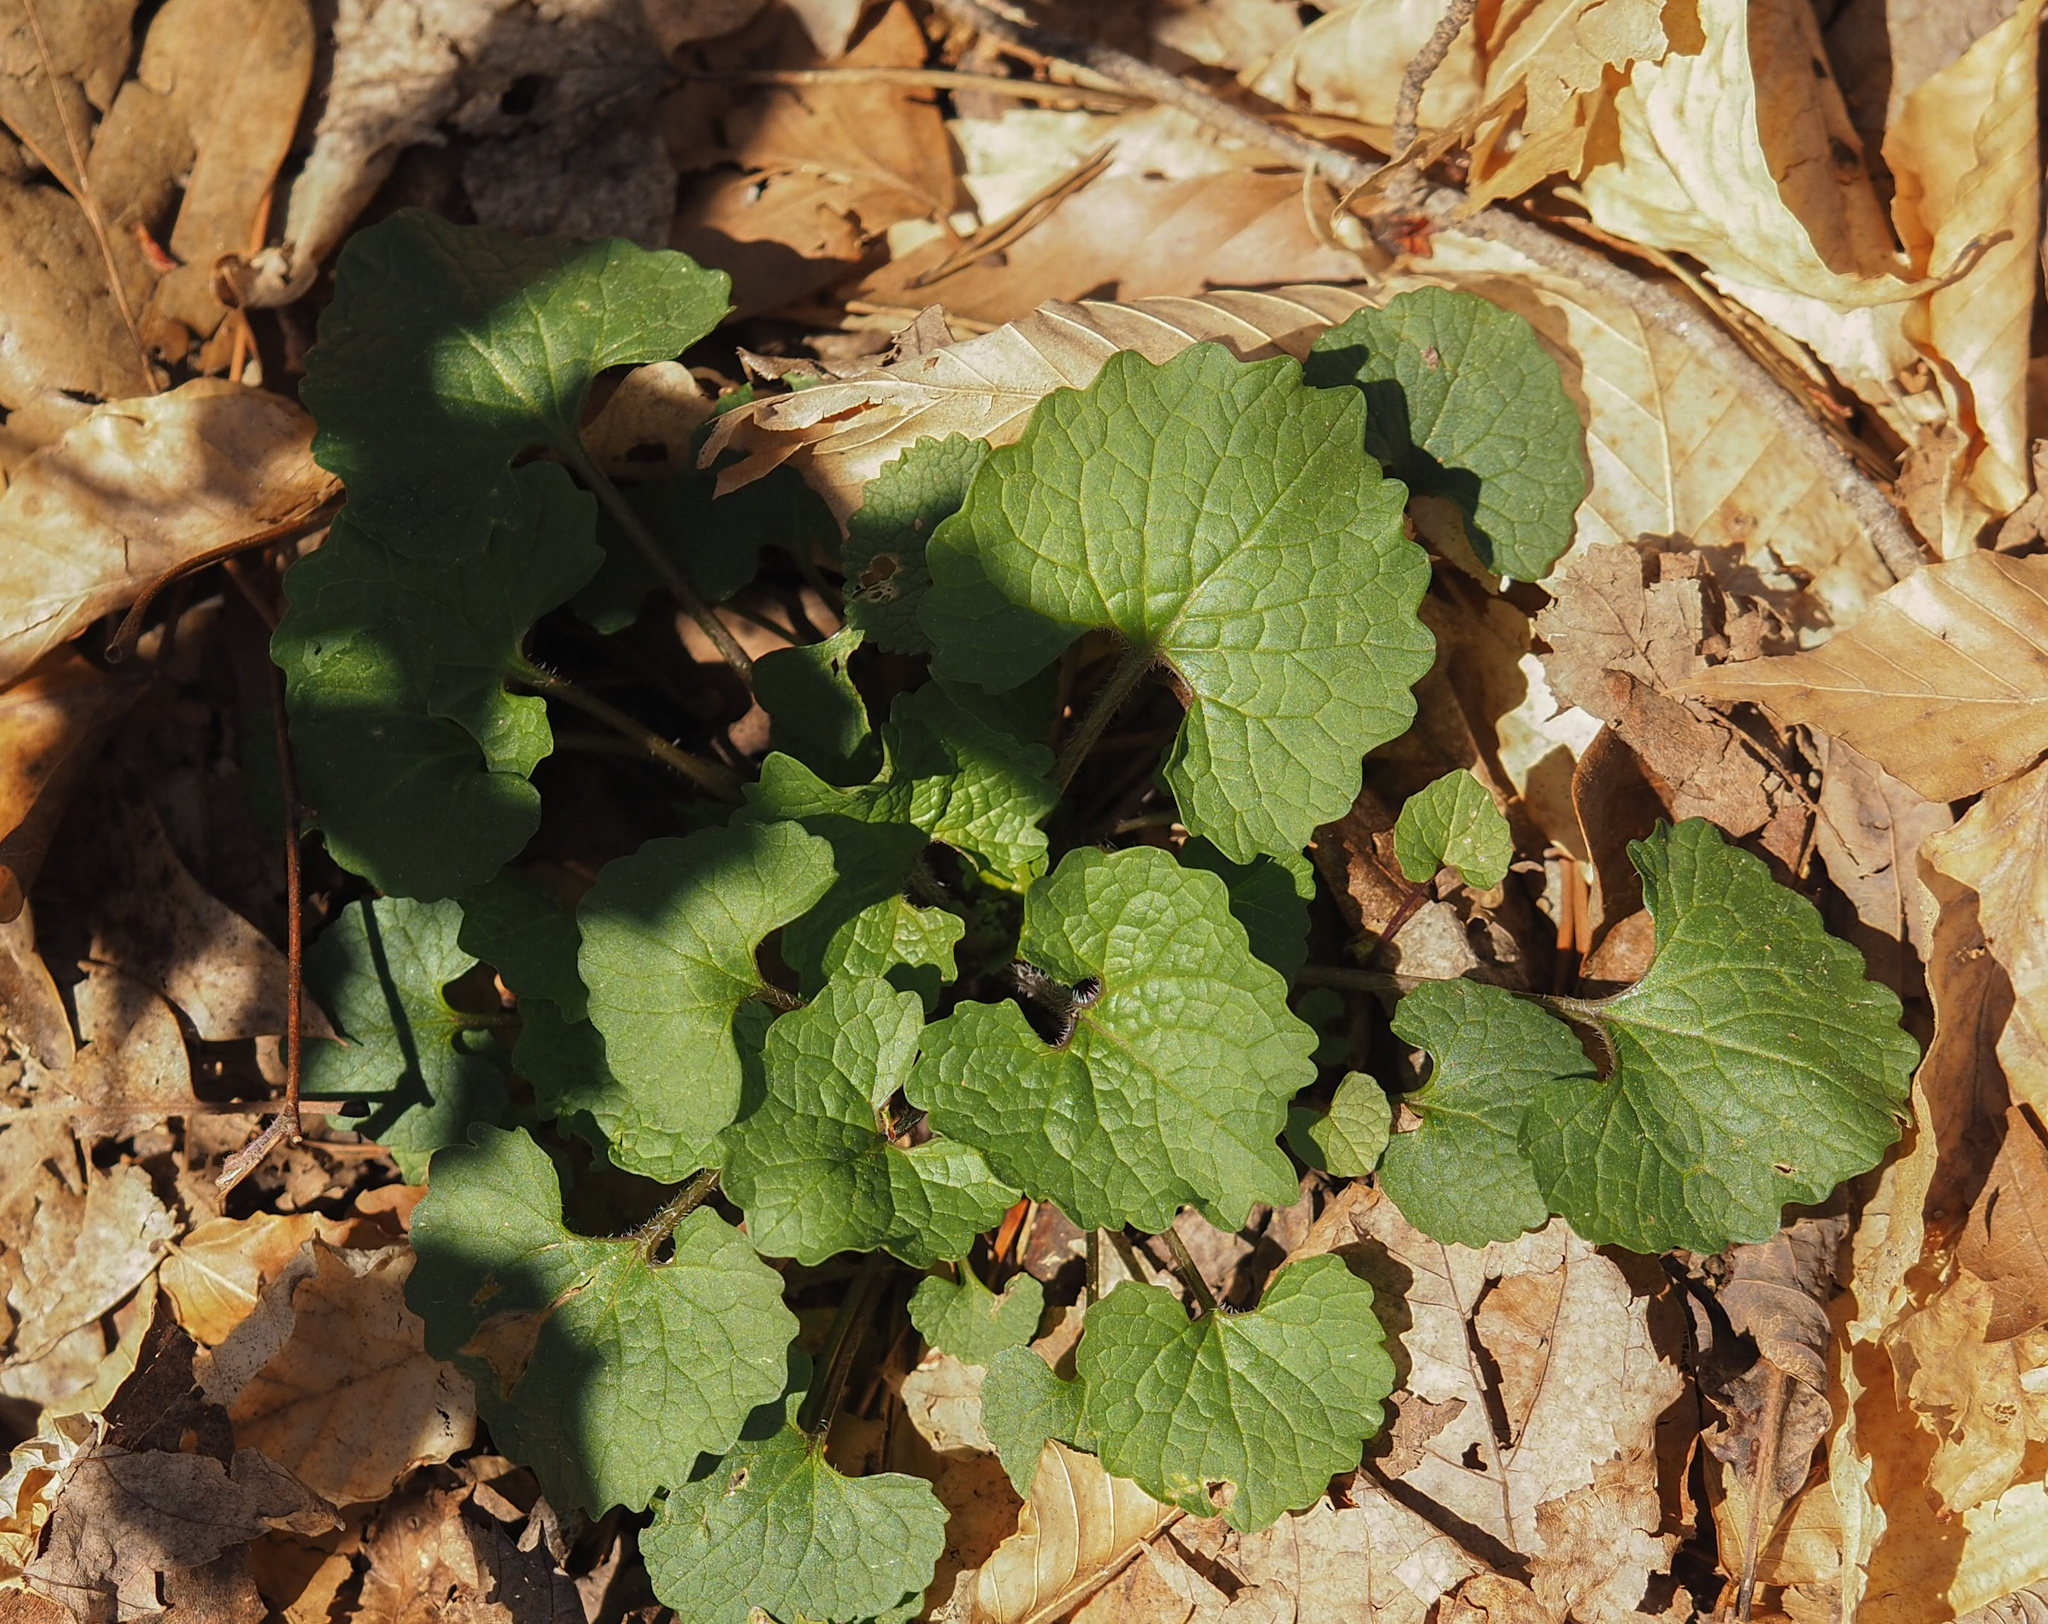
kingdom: Plantae
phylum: Tracheophyta
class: Magnoliopsida
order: Brassicales
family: Brassicaceae
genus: Alliaria
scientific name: Alliaria petiolata
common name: Garlic mustard
